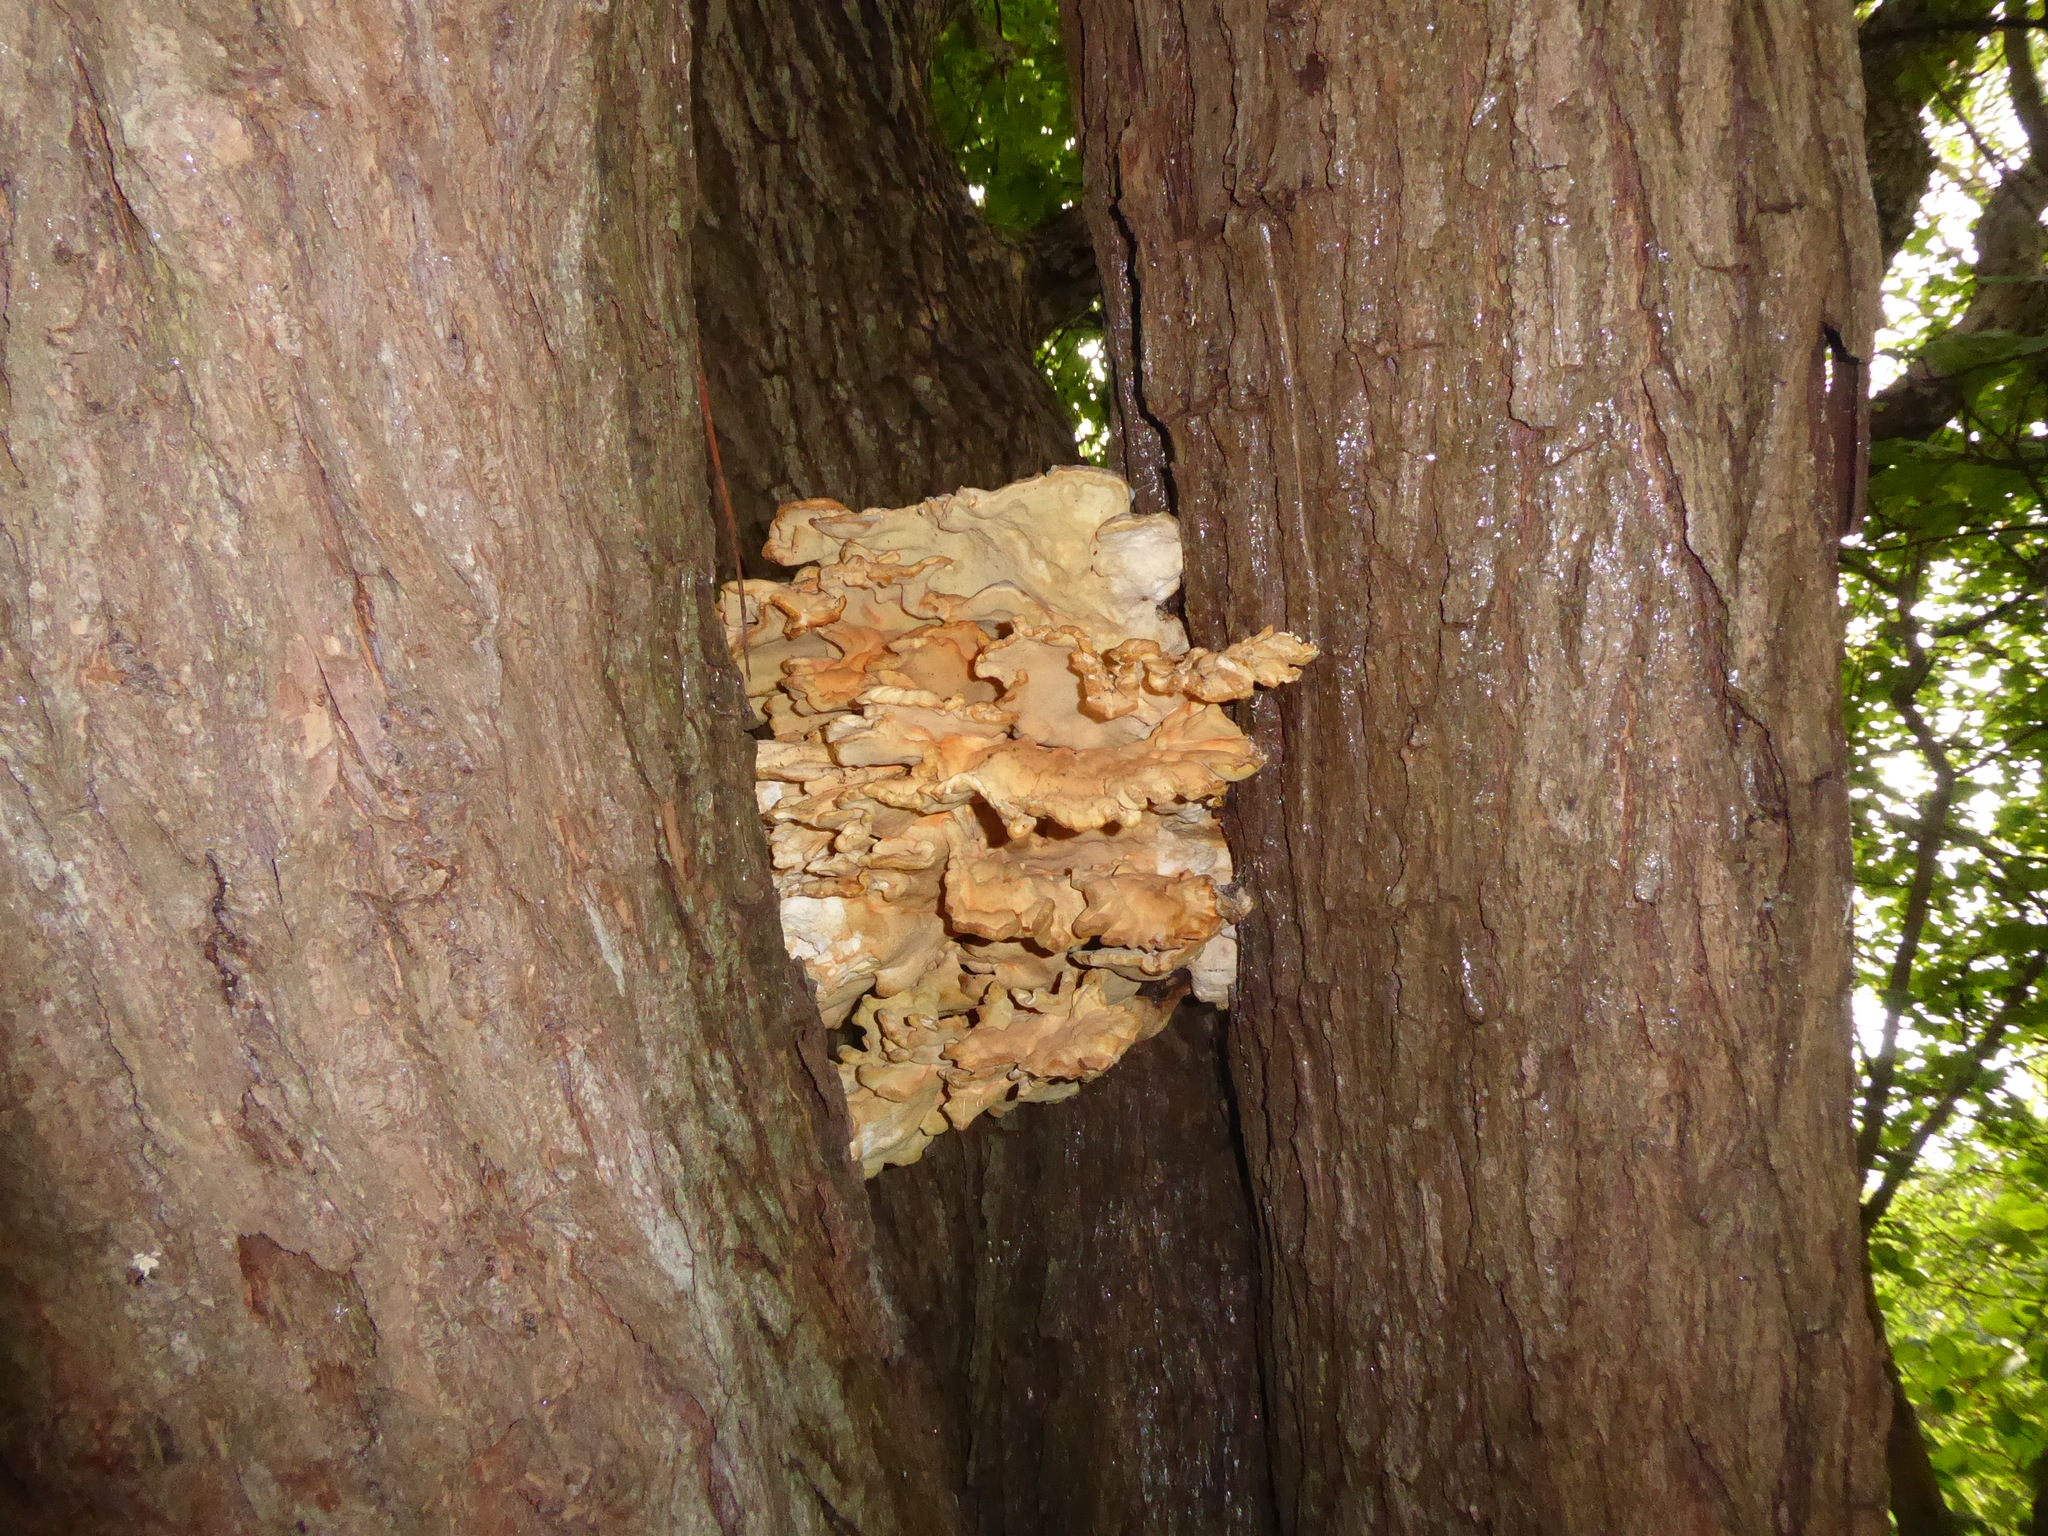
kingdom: Fungi
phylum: Basidiomycota
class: Agaricomycetes
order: Polyporales
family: Laetiporaceae
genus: Laetiporus
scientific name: Laetiporus sulphureus
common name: Chicken of the woods
